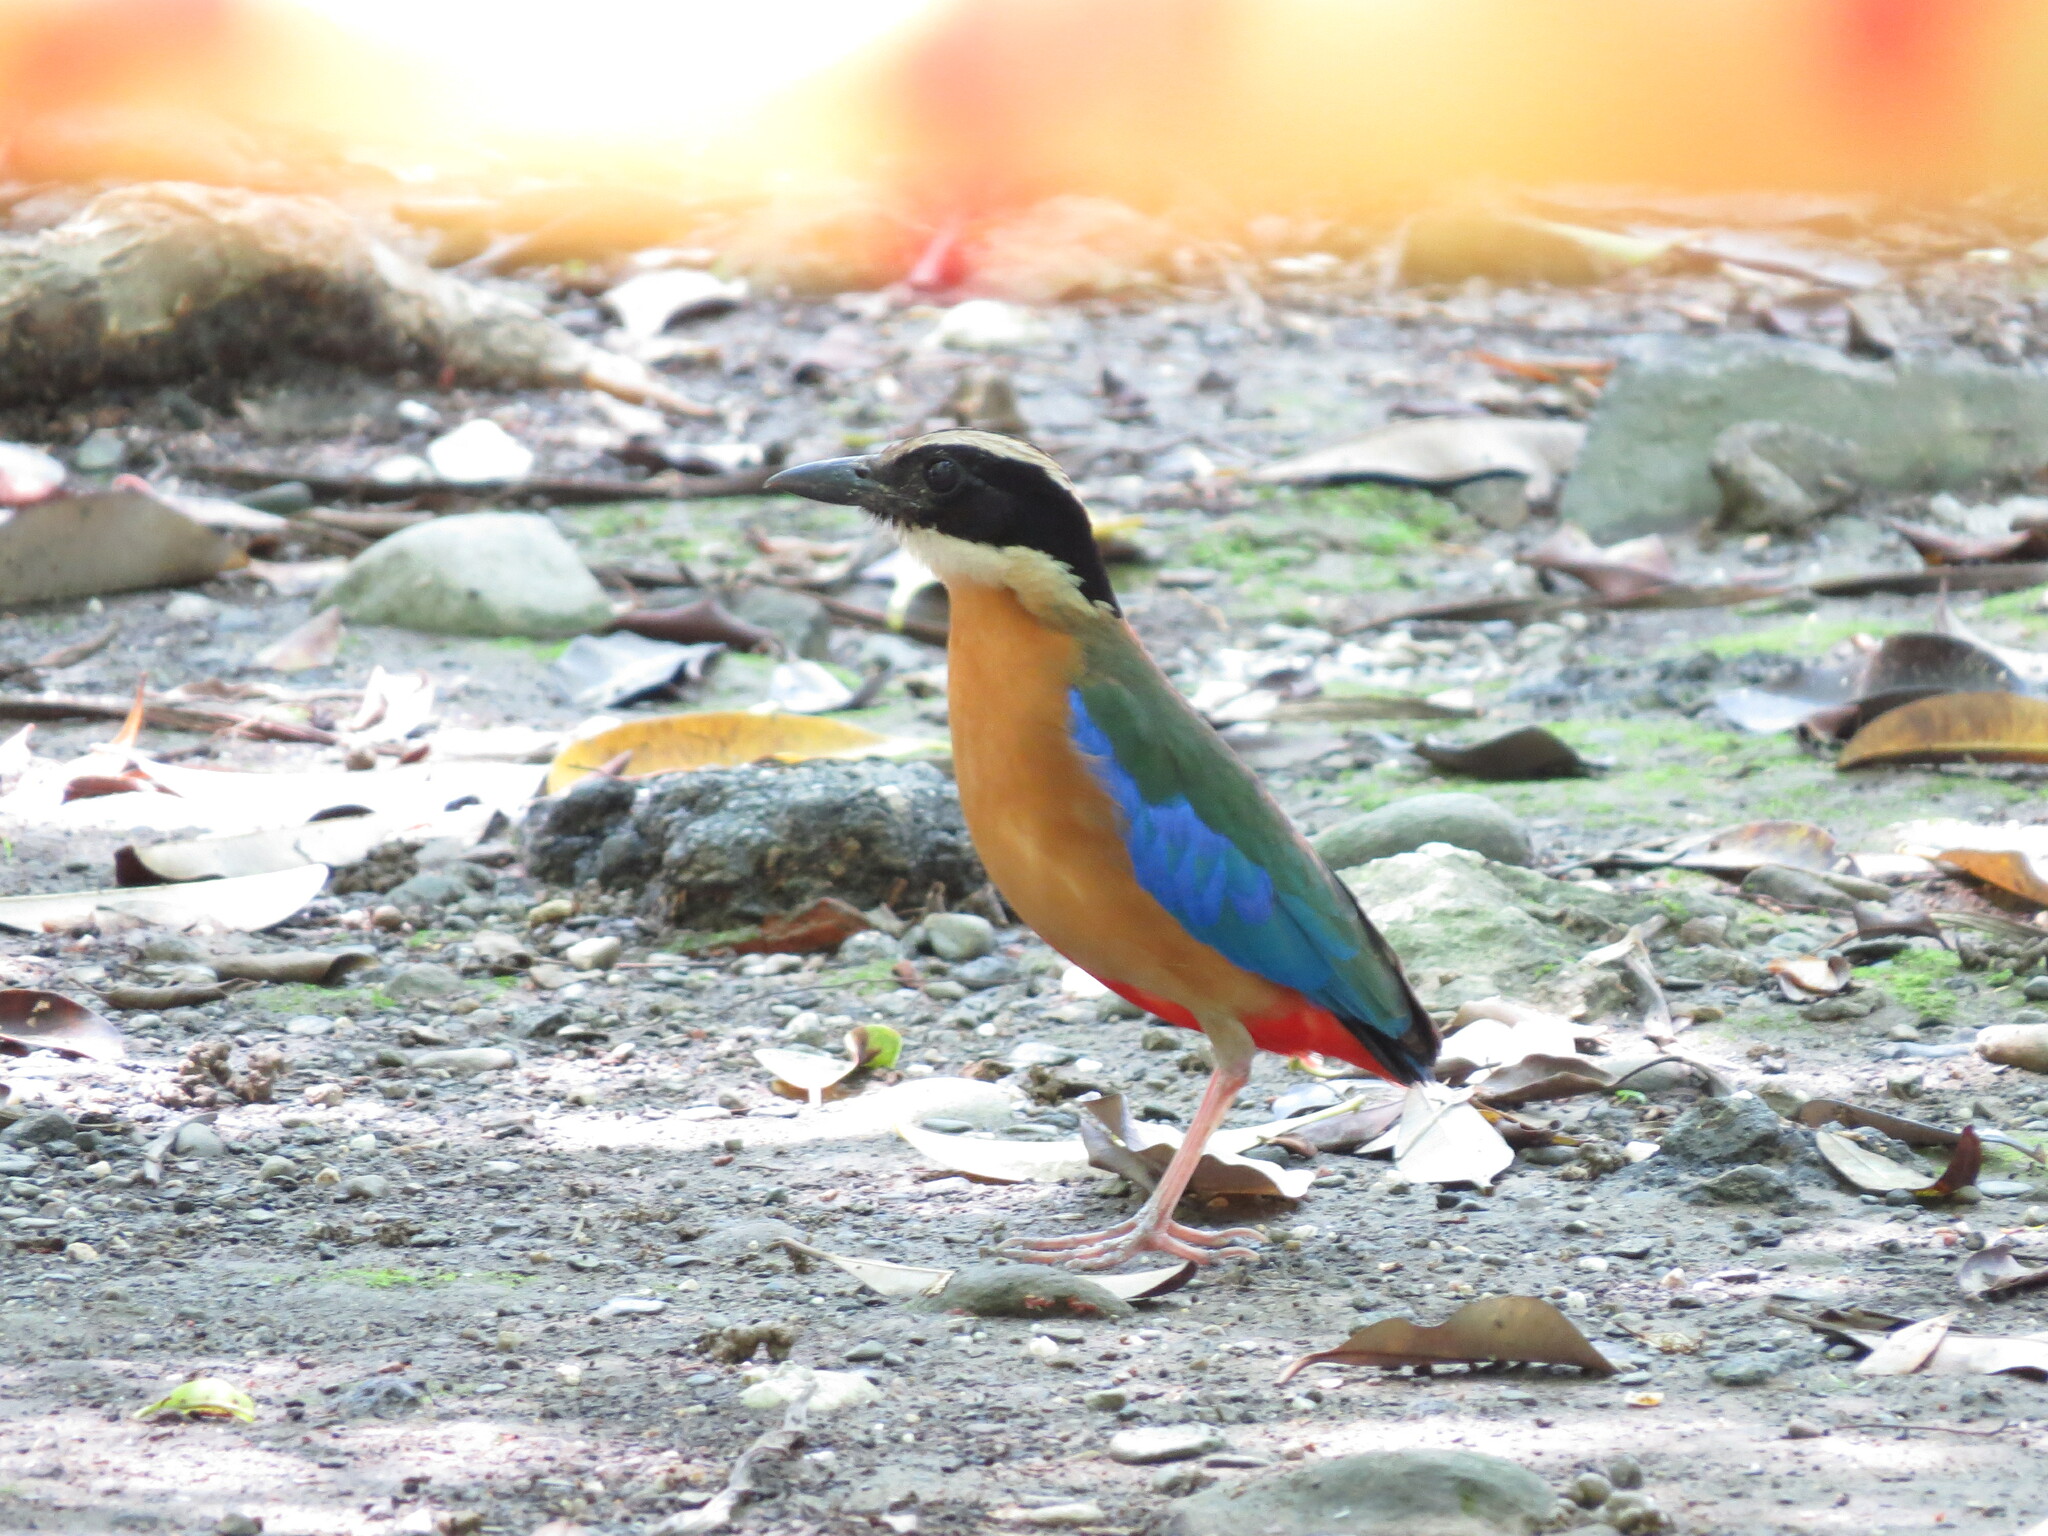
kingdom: Animalia
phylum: Chordata
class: Aves
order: Passeriformes
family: Pittidae
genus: Pitta
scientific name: Pitta moluccensis
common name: Blue-winged pitta
